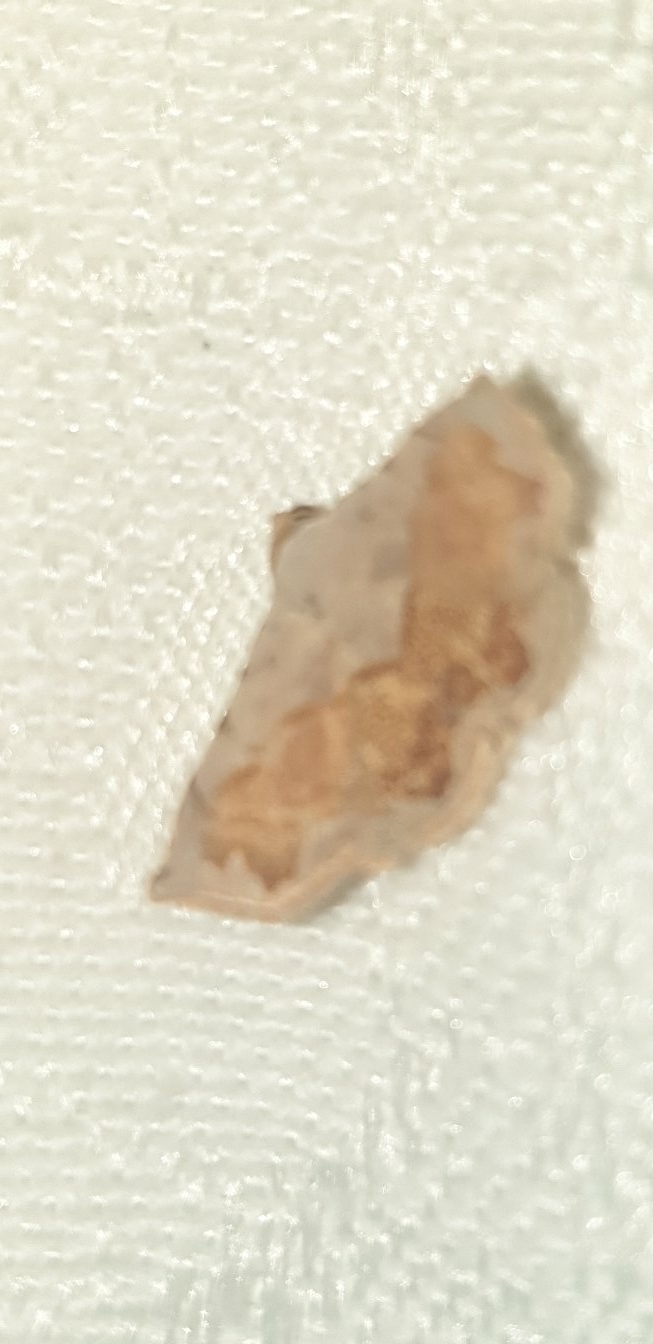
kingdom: Animalia
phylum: Arthropoda
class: Insecta
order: Lepidoptera
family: Noctuidae
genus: Eublemma
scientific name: Eublemma
